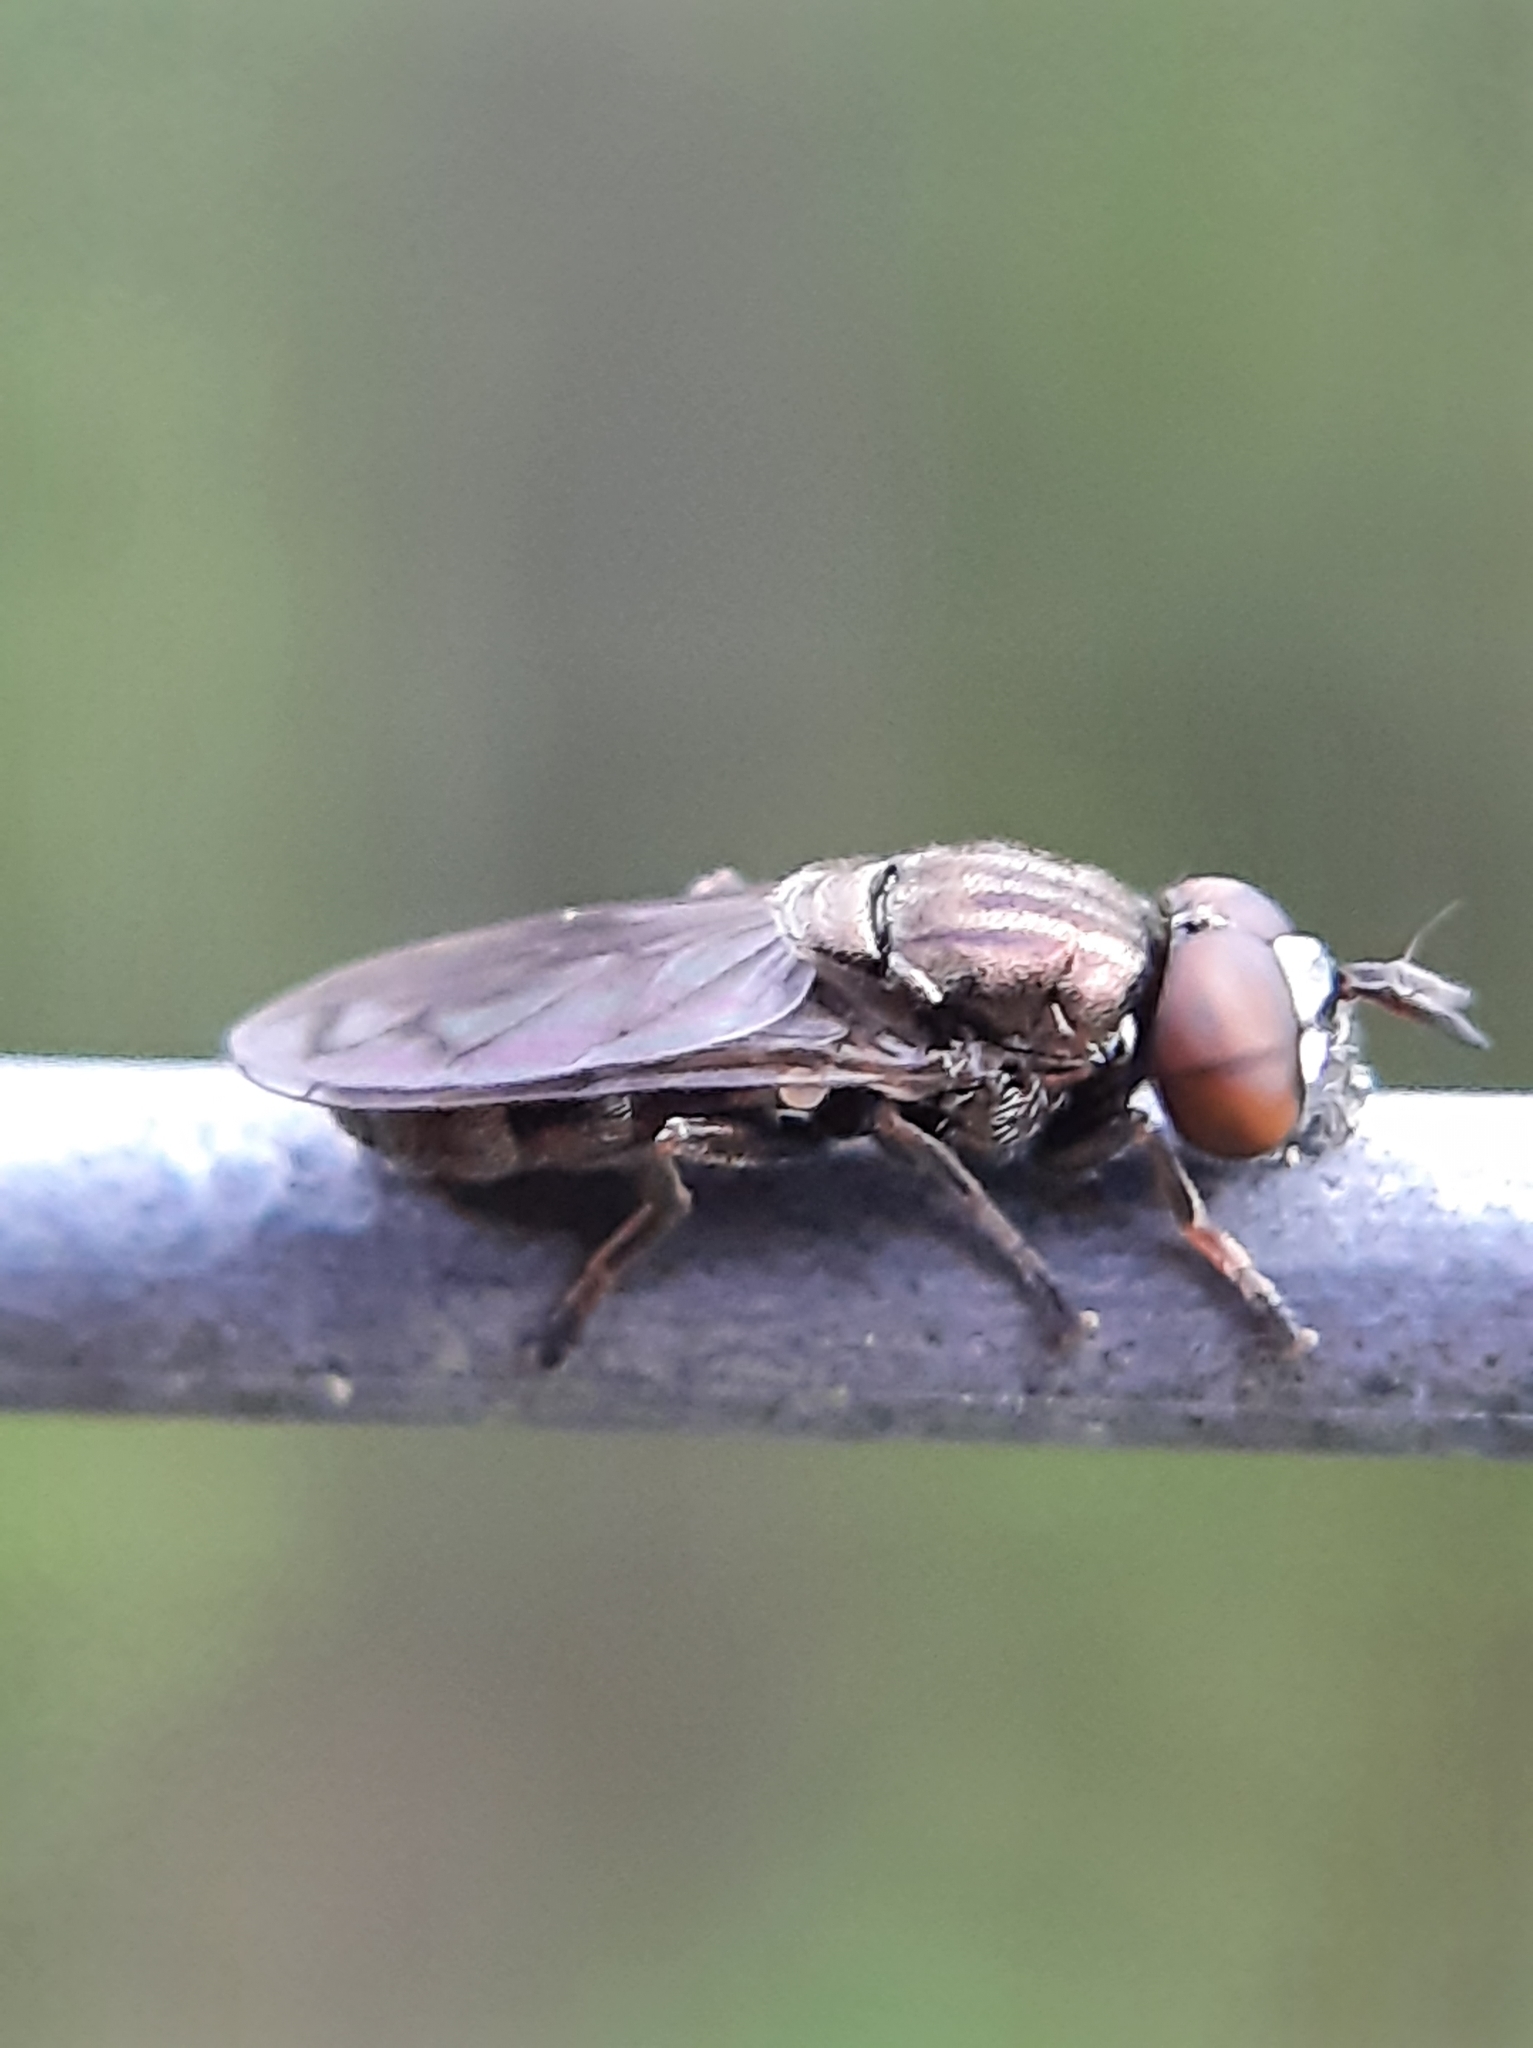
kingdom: Animalia
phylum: Arthropoda
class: Insecta
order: Diptera
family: Syrphidae
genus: Orthonevra
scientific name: Orthonevra pictipennis
